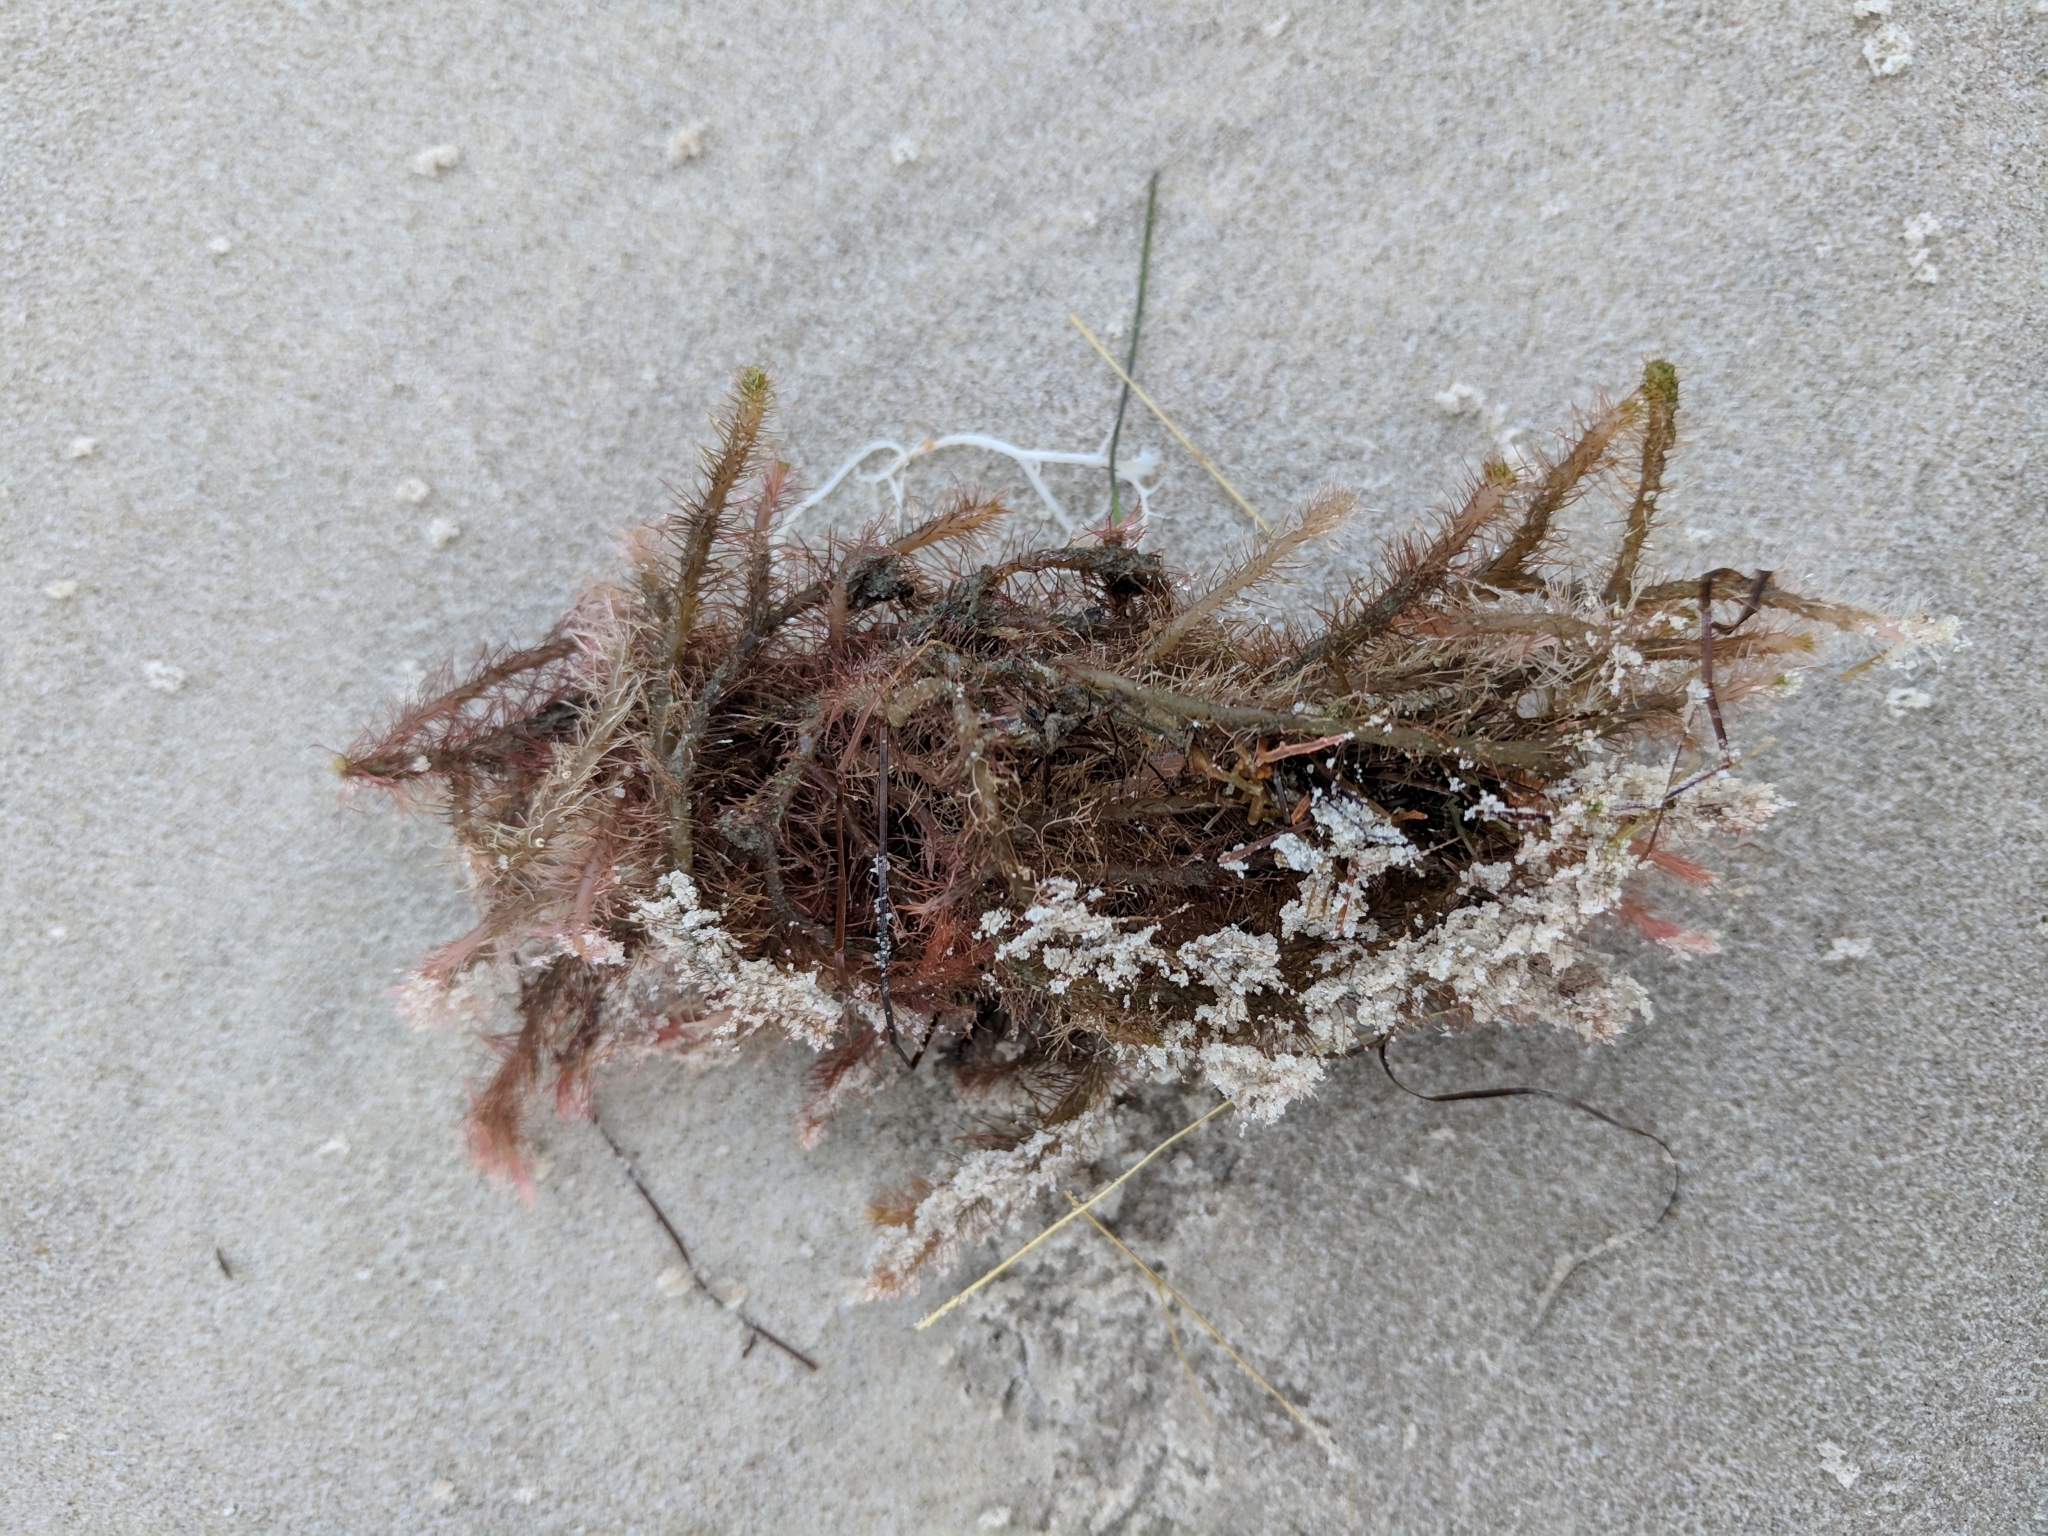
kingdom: Plantae
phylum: Rhodophyta
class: Florideophyceae
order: Ceramiales
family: Rhodomelaceae
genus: Digenea
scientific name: Digenea simplex
